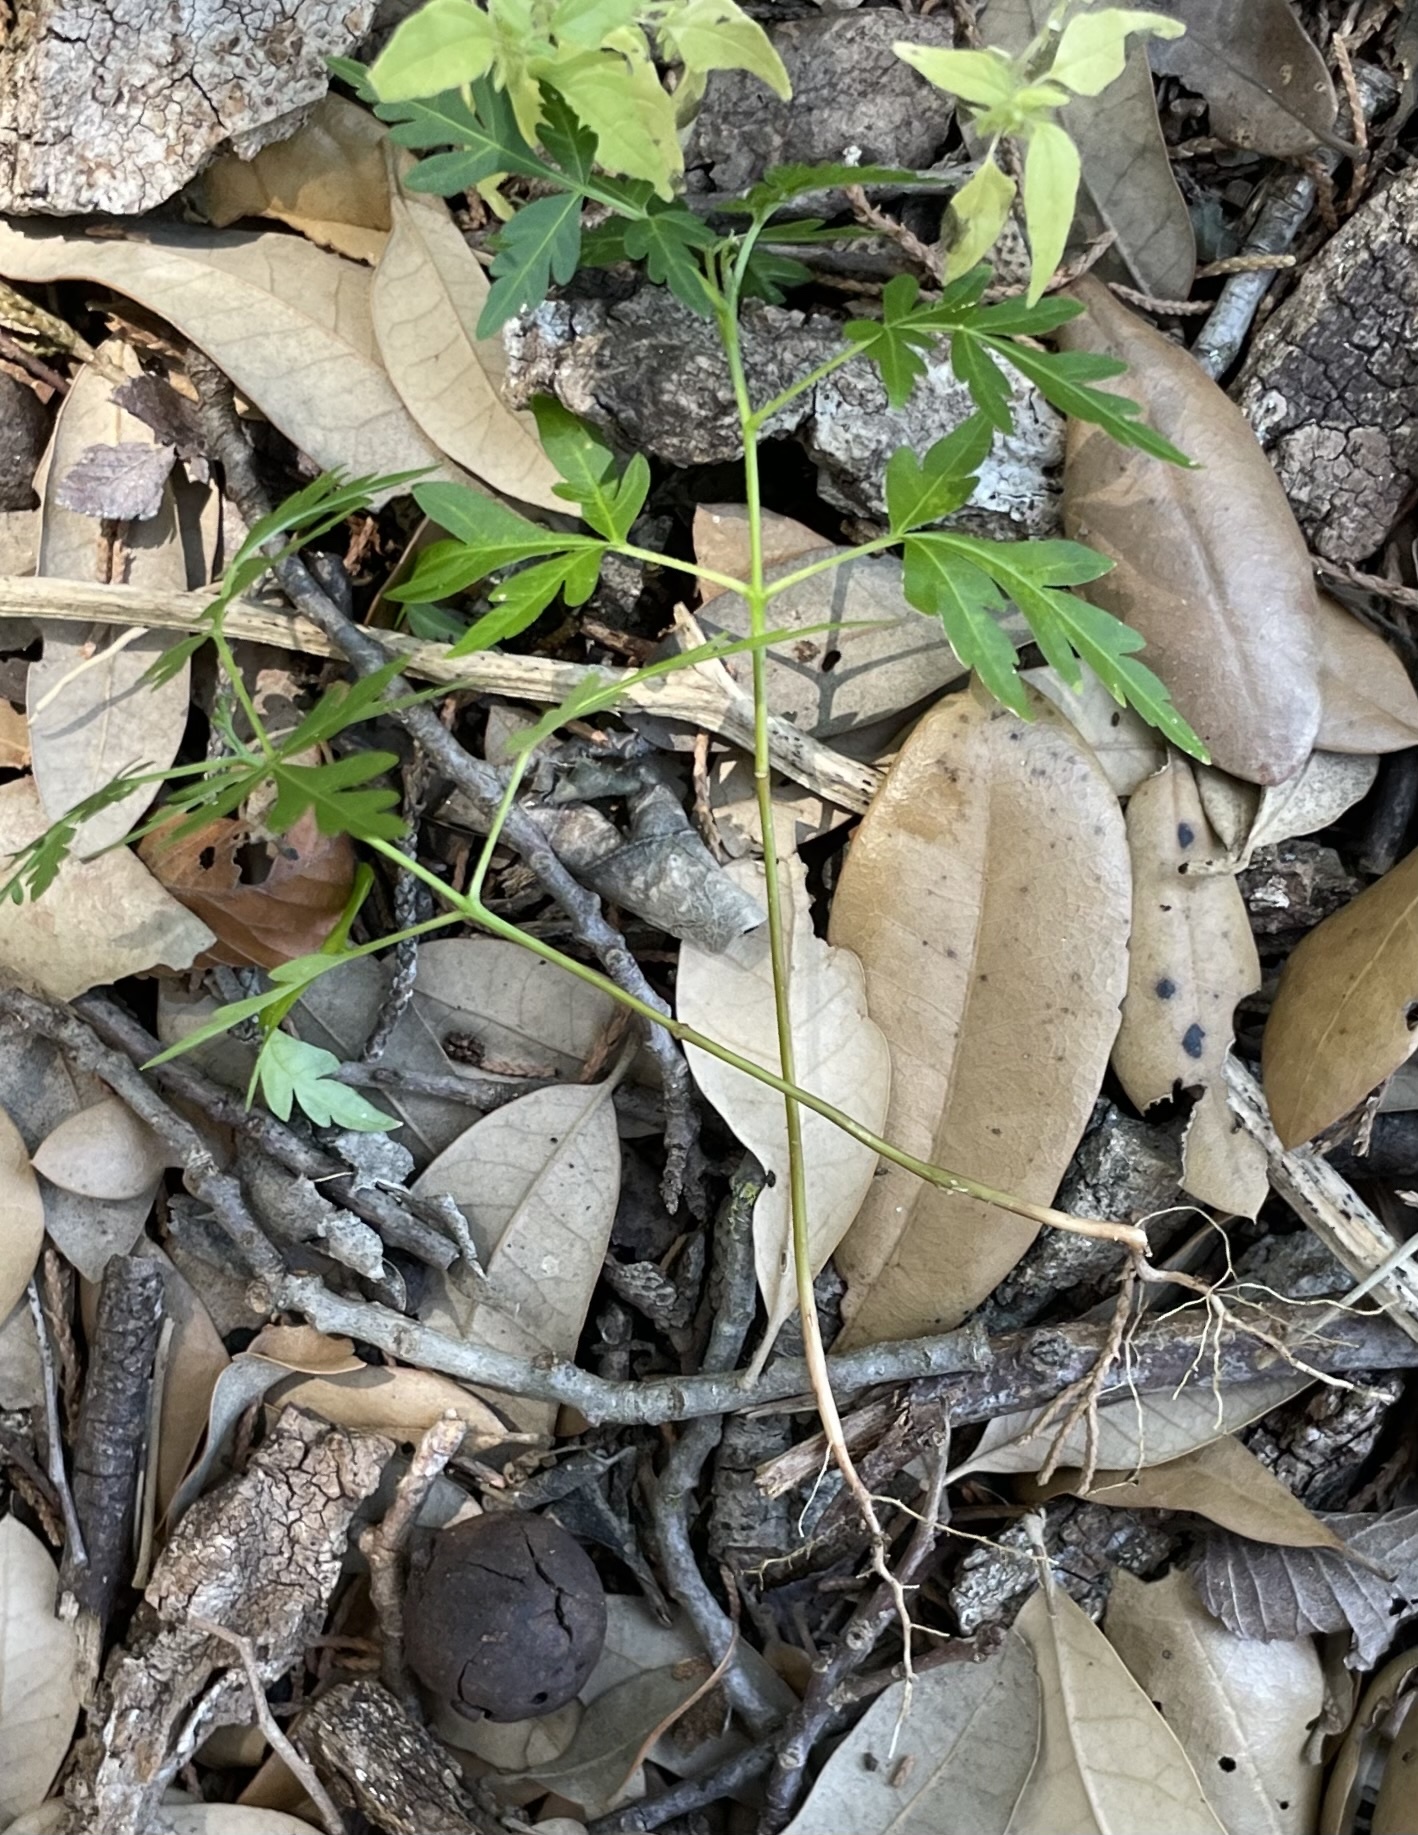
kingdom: Plantae
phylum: Tracheophyta
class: Magnoliopsida
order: Sapindales
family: Meliaceae
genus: Melia
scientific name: Melia azedarach
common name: Chinaberrytree
